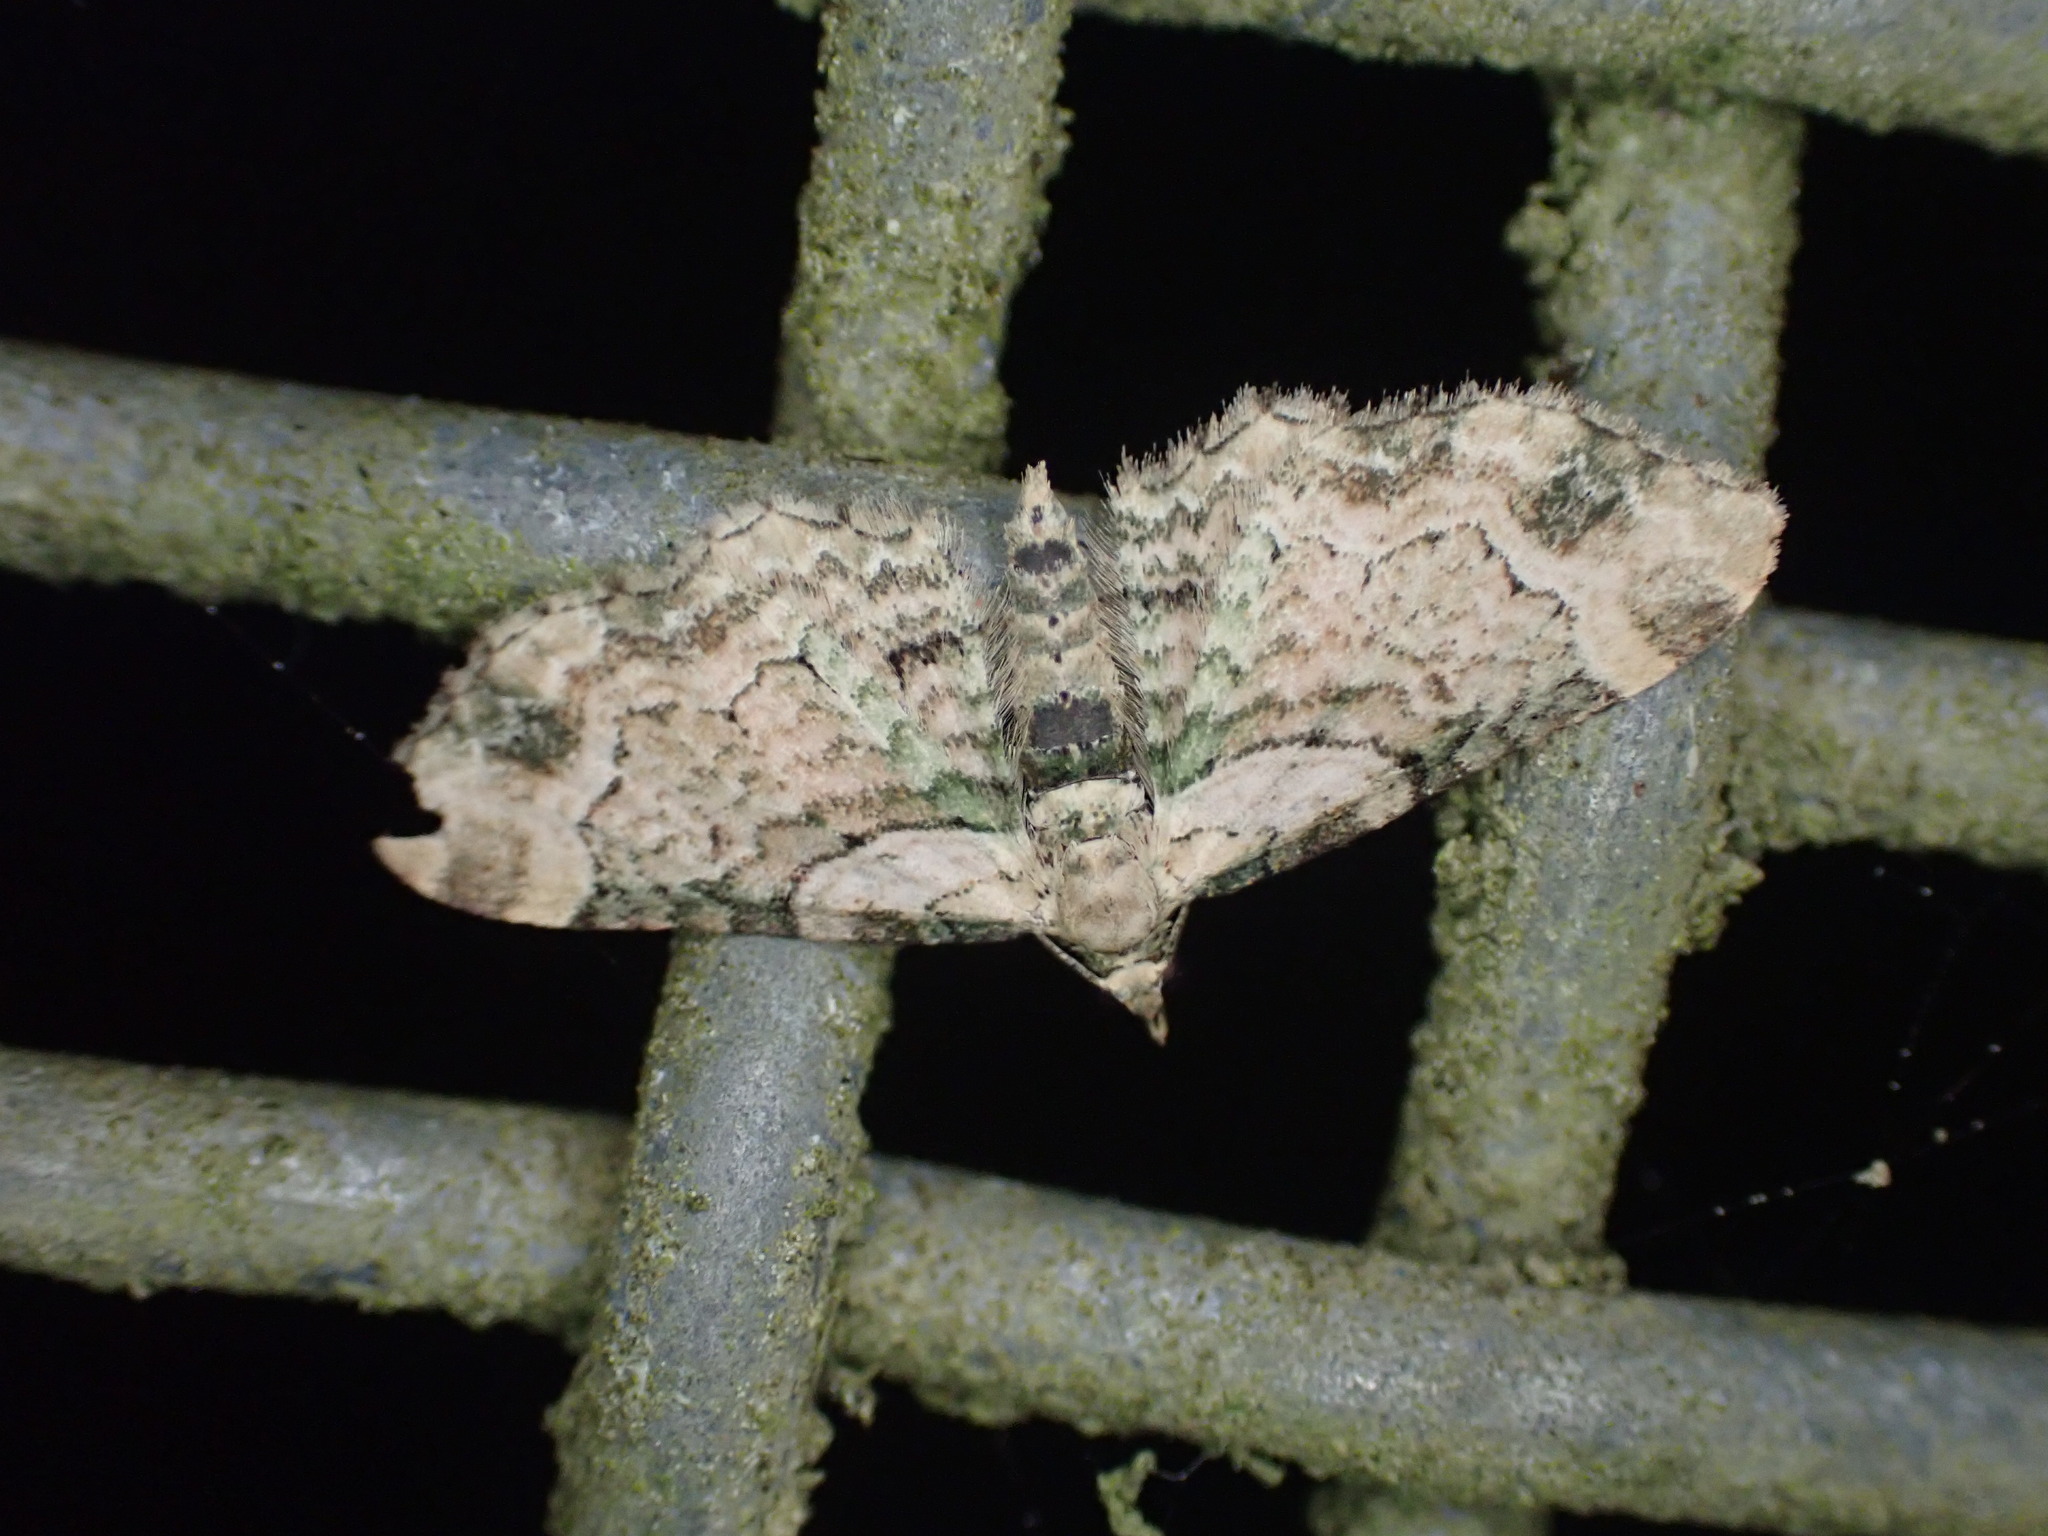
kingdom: Animalia
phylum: Arthropoda
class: Insecta
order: Lepidoptera
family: Geometridae
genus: Chloroclystis
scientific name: Chloroclystis
